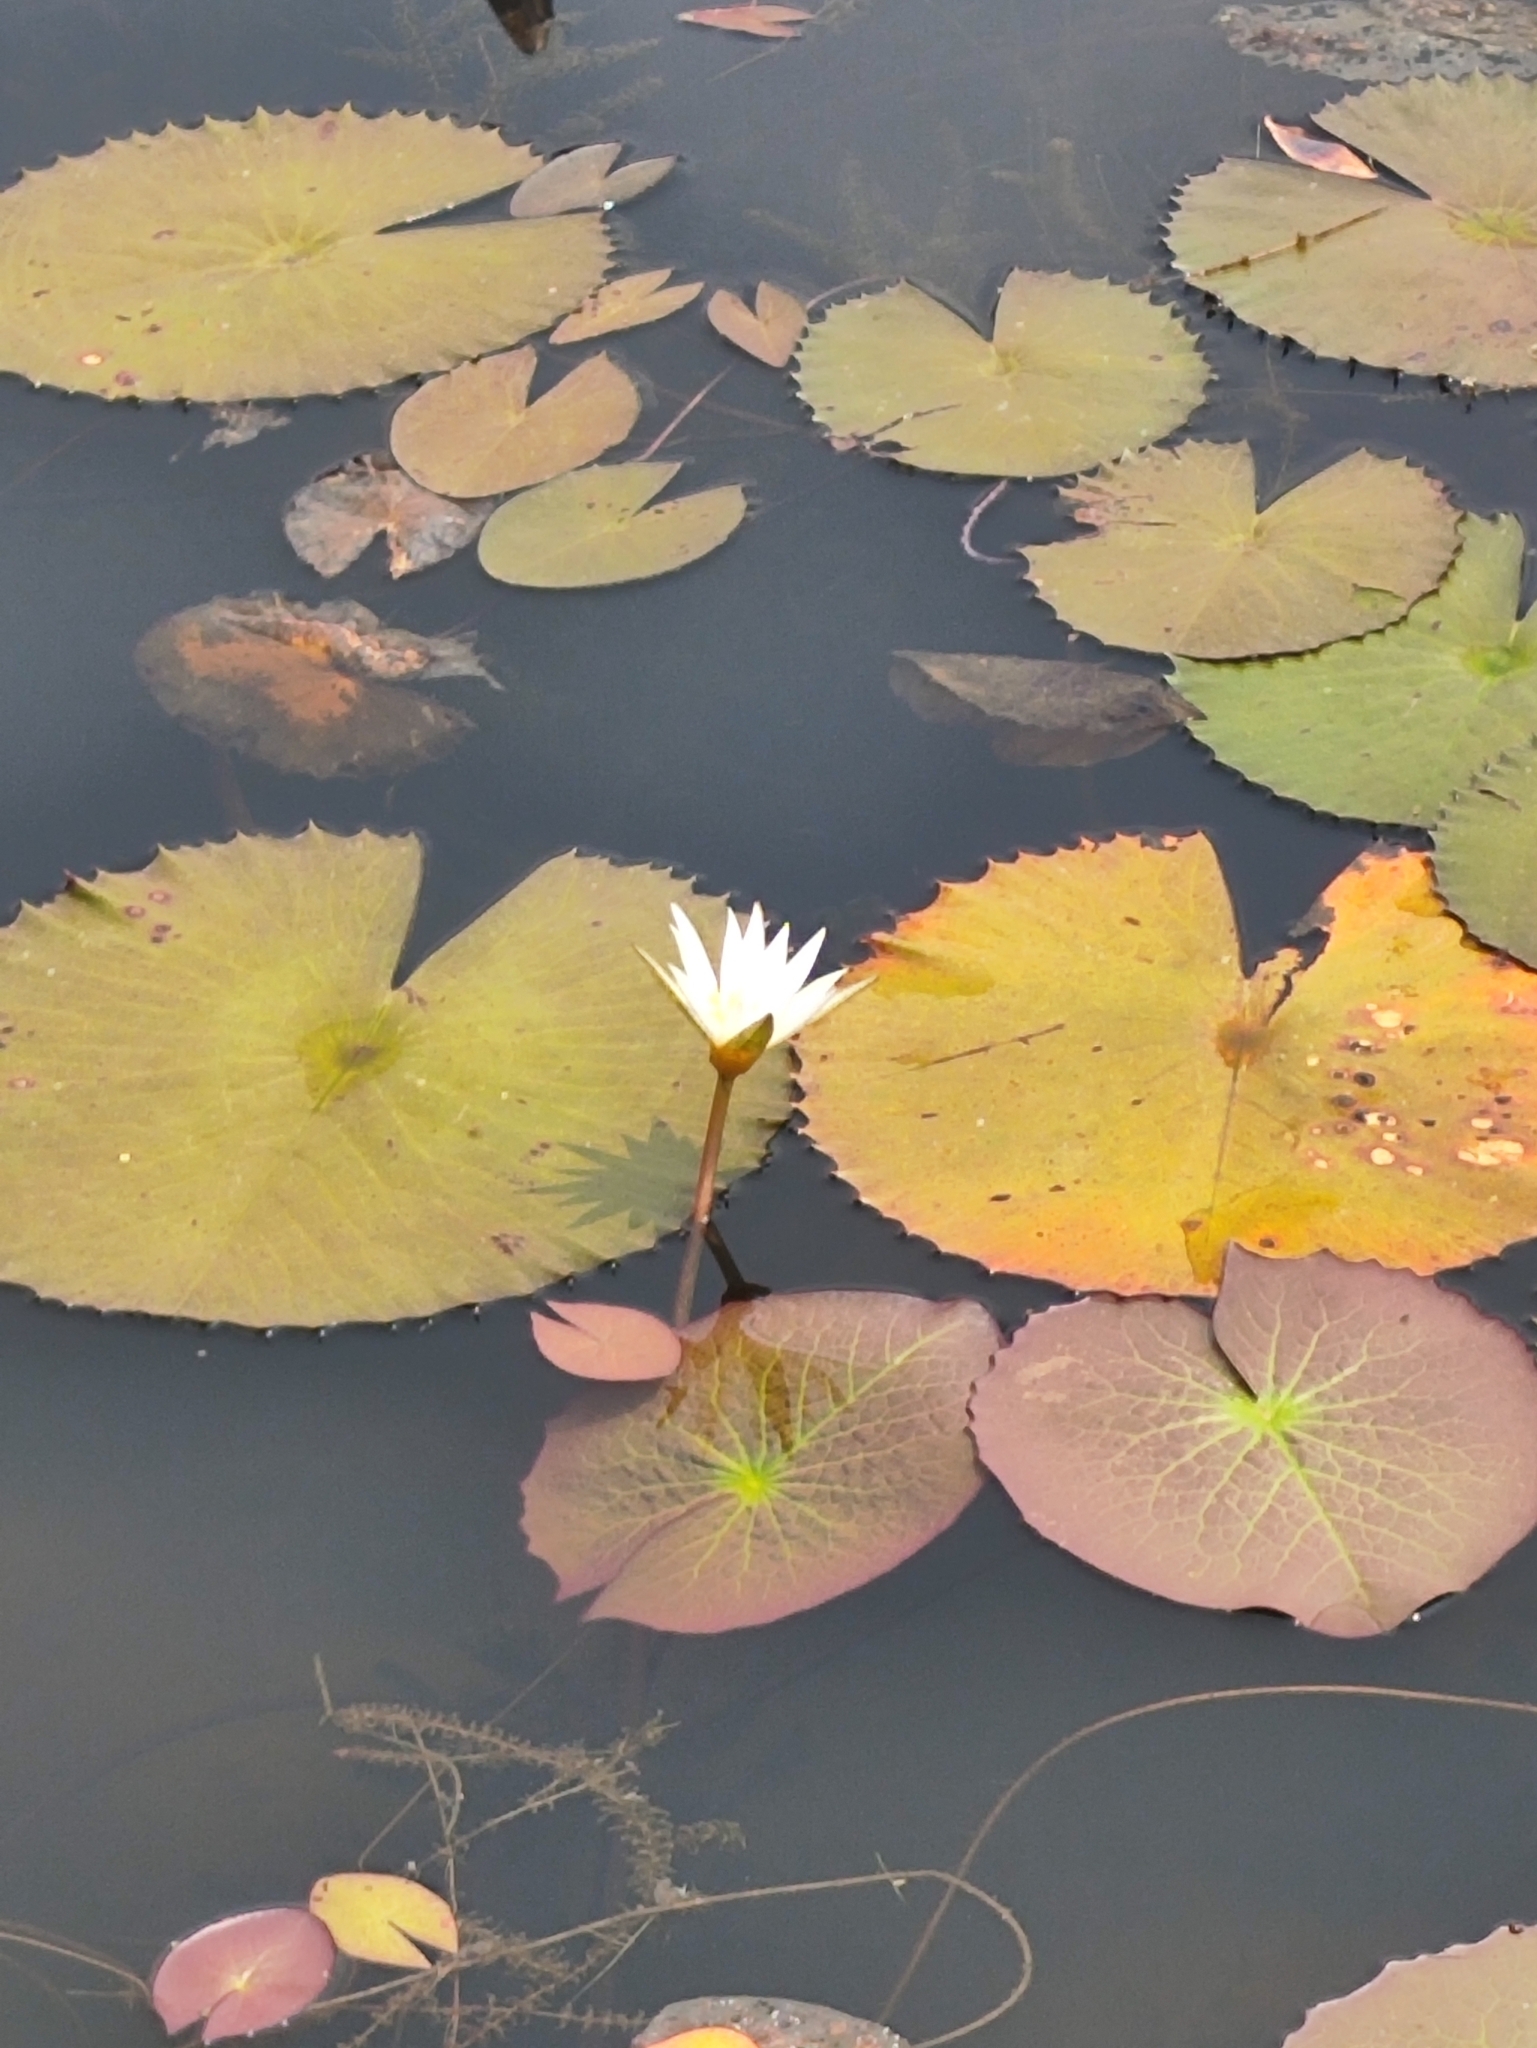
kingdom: Plantae
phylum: Tracheophyta
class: Magnoliopsida
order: Nymphaeales
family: Nymphaeaceae
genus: Nymphaea
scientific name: Nymphaea alba
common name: White water-lily
